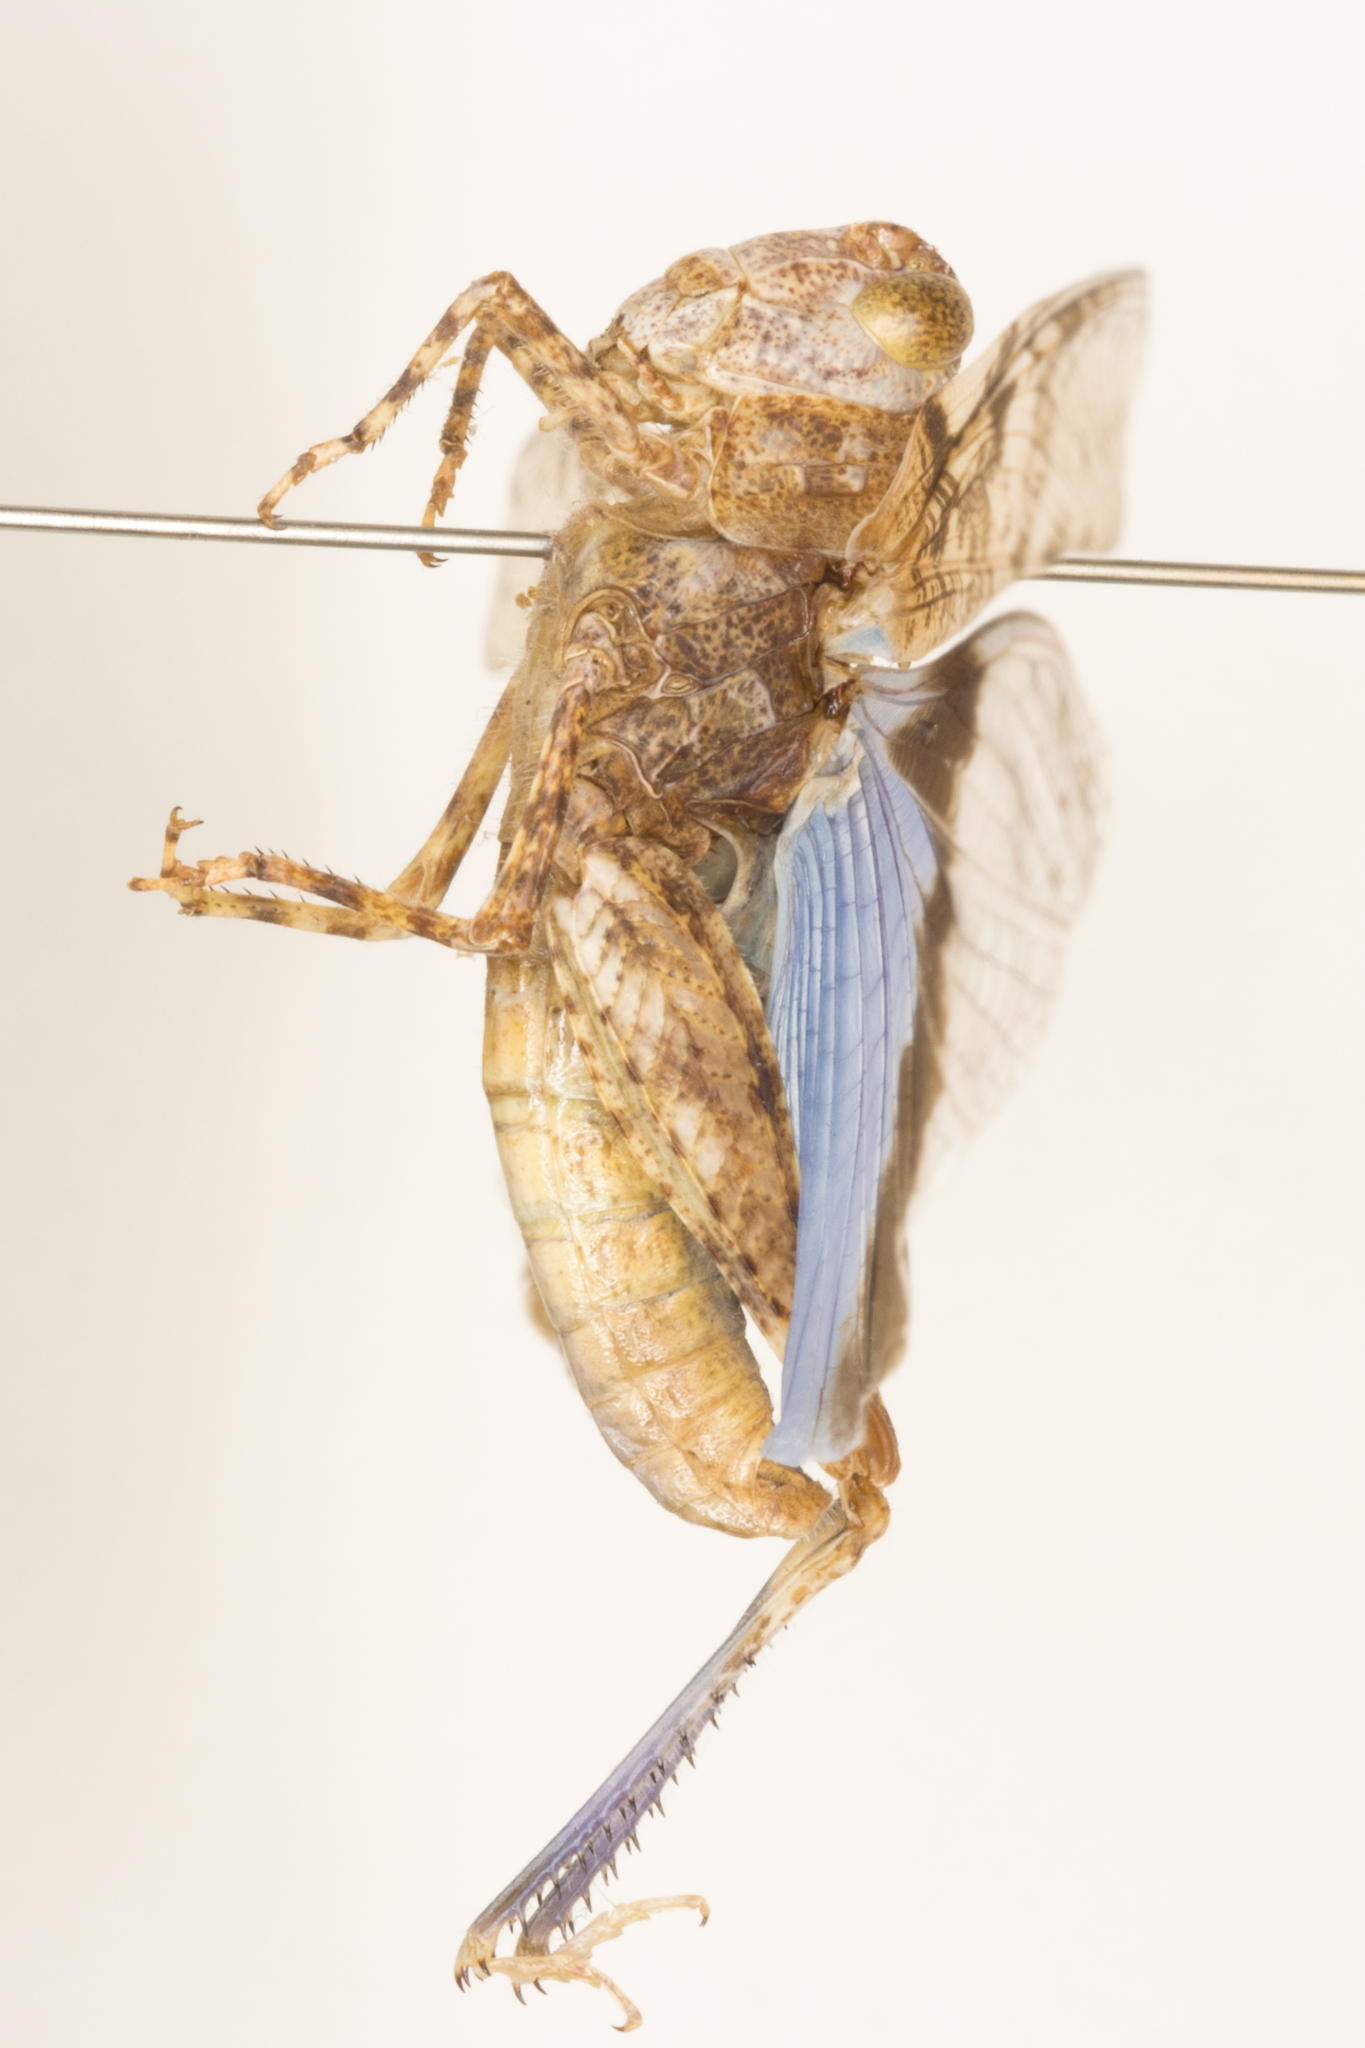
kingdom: Animalia
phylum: Arthropoda
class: Insecta
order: Orthoptera
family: Acrididae
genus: Trimerotropis
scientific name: Trimerotropis cyaneipennis
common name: Blue-winged grasshopper
